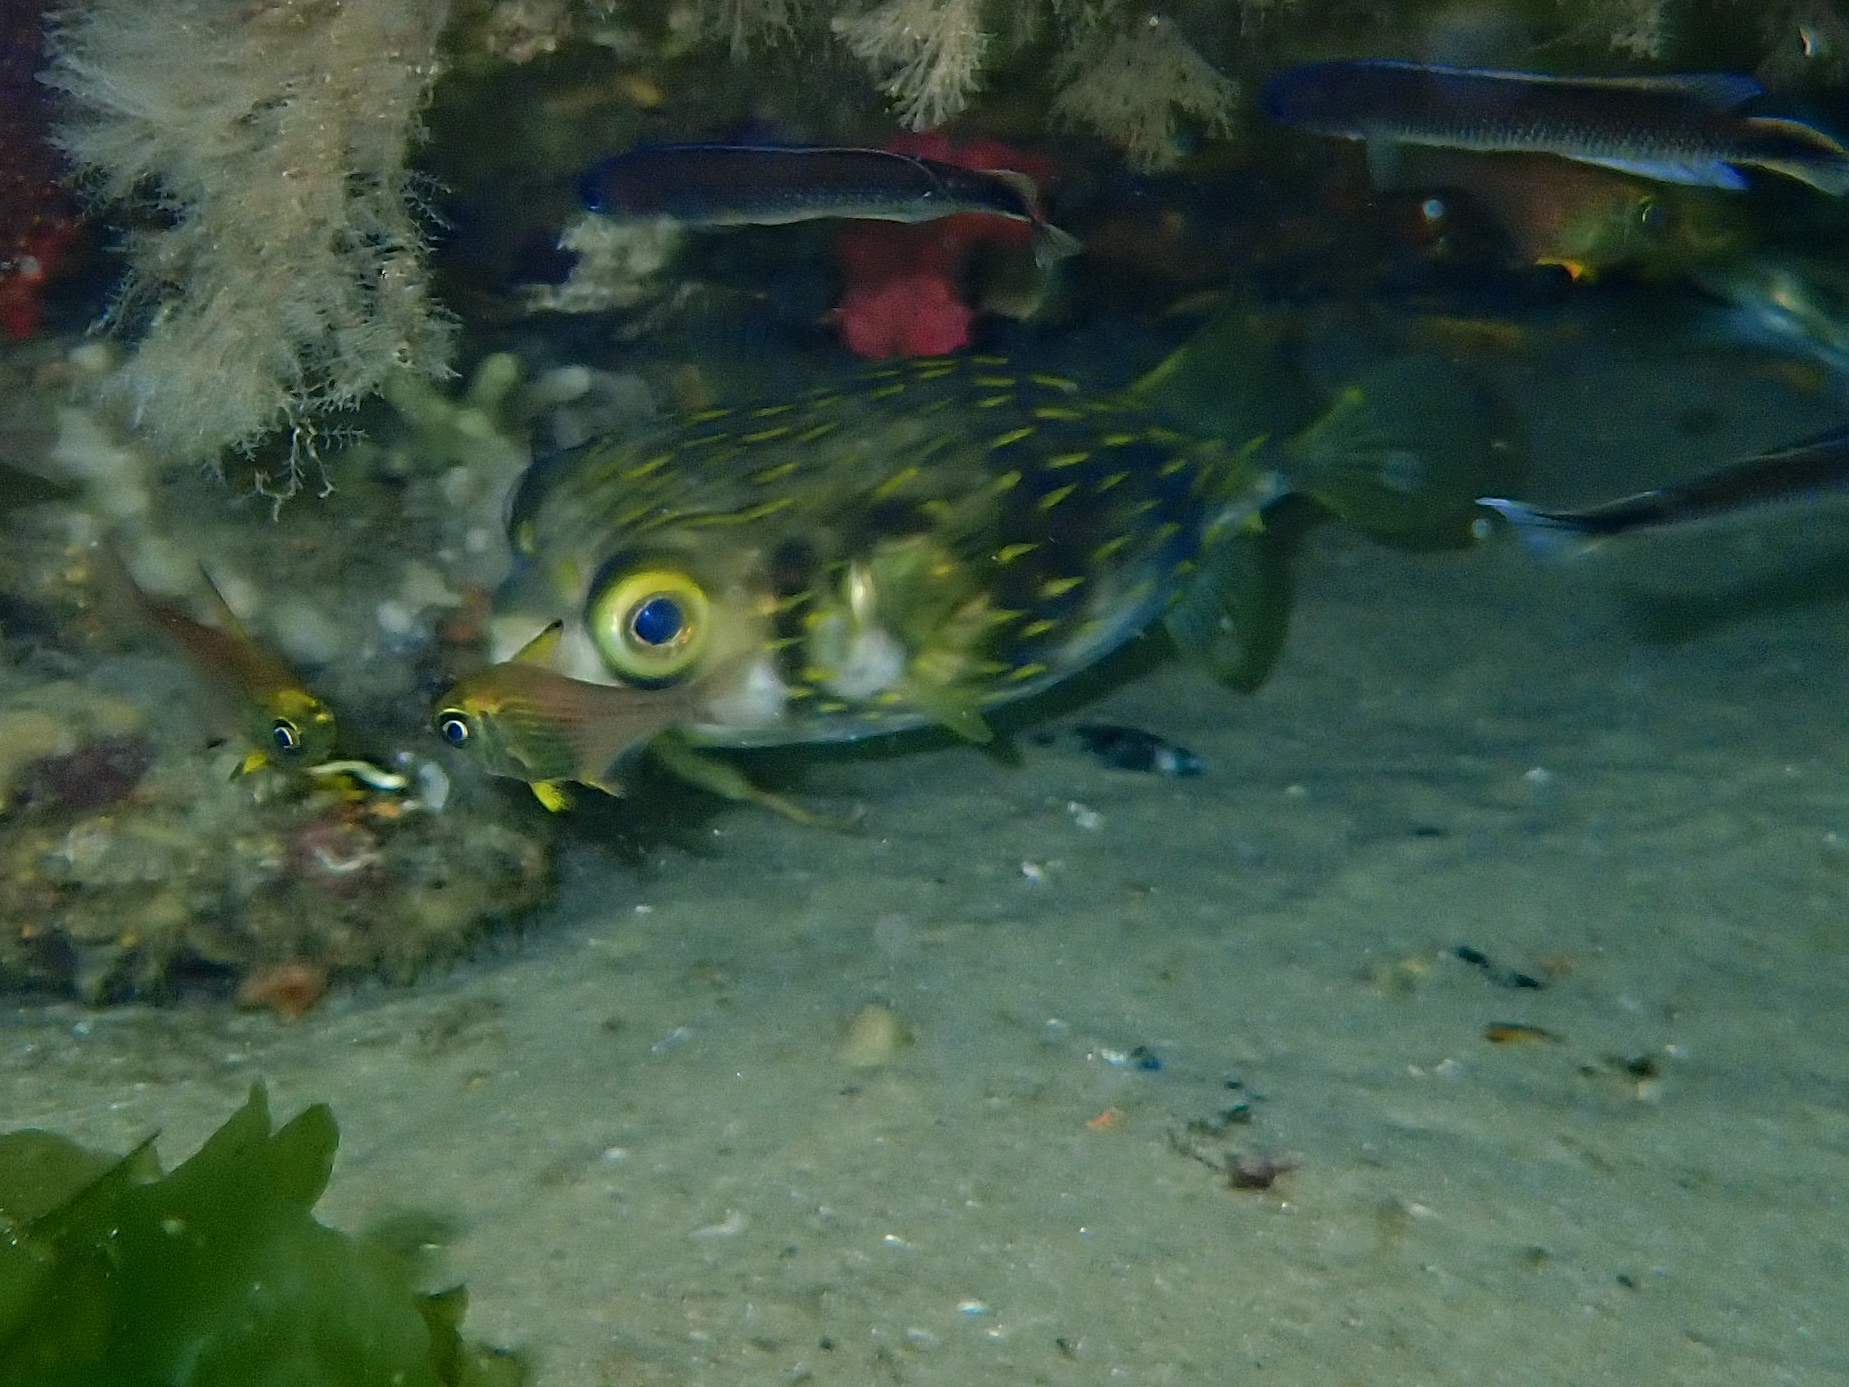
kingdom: Animalia
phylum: Chordata
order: Tetraodontiformes
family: Diodontidae
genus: Diodon
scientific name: Diodon nicthemerus
